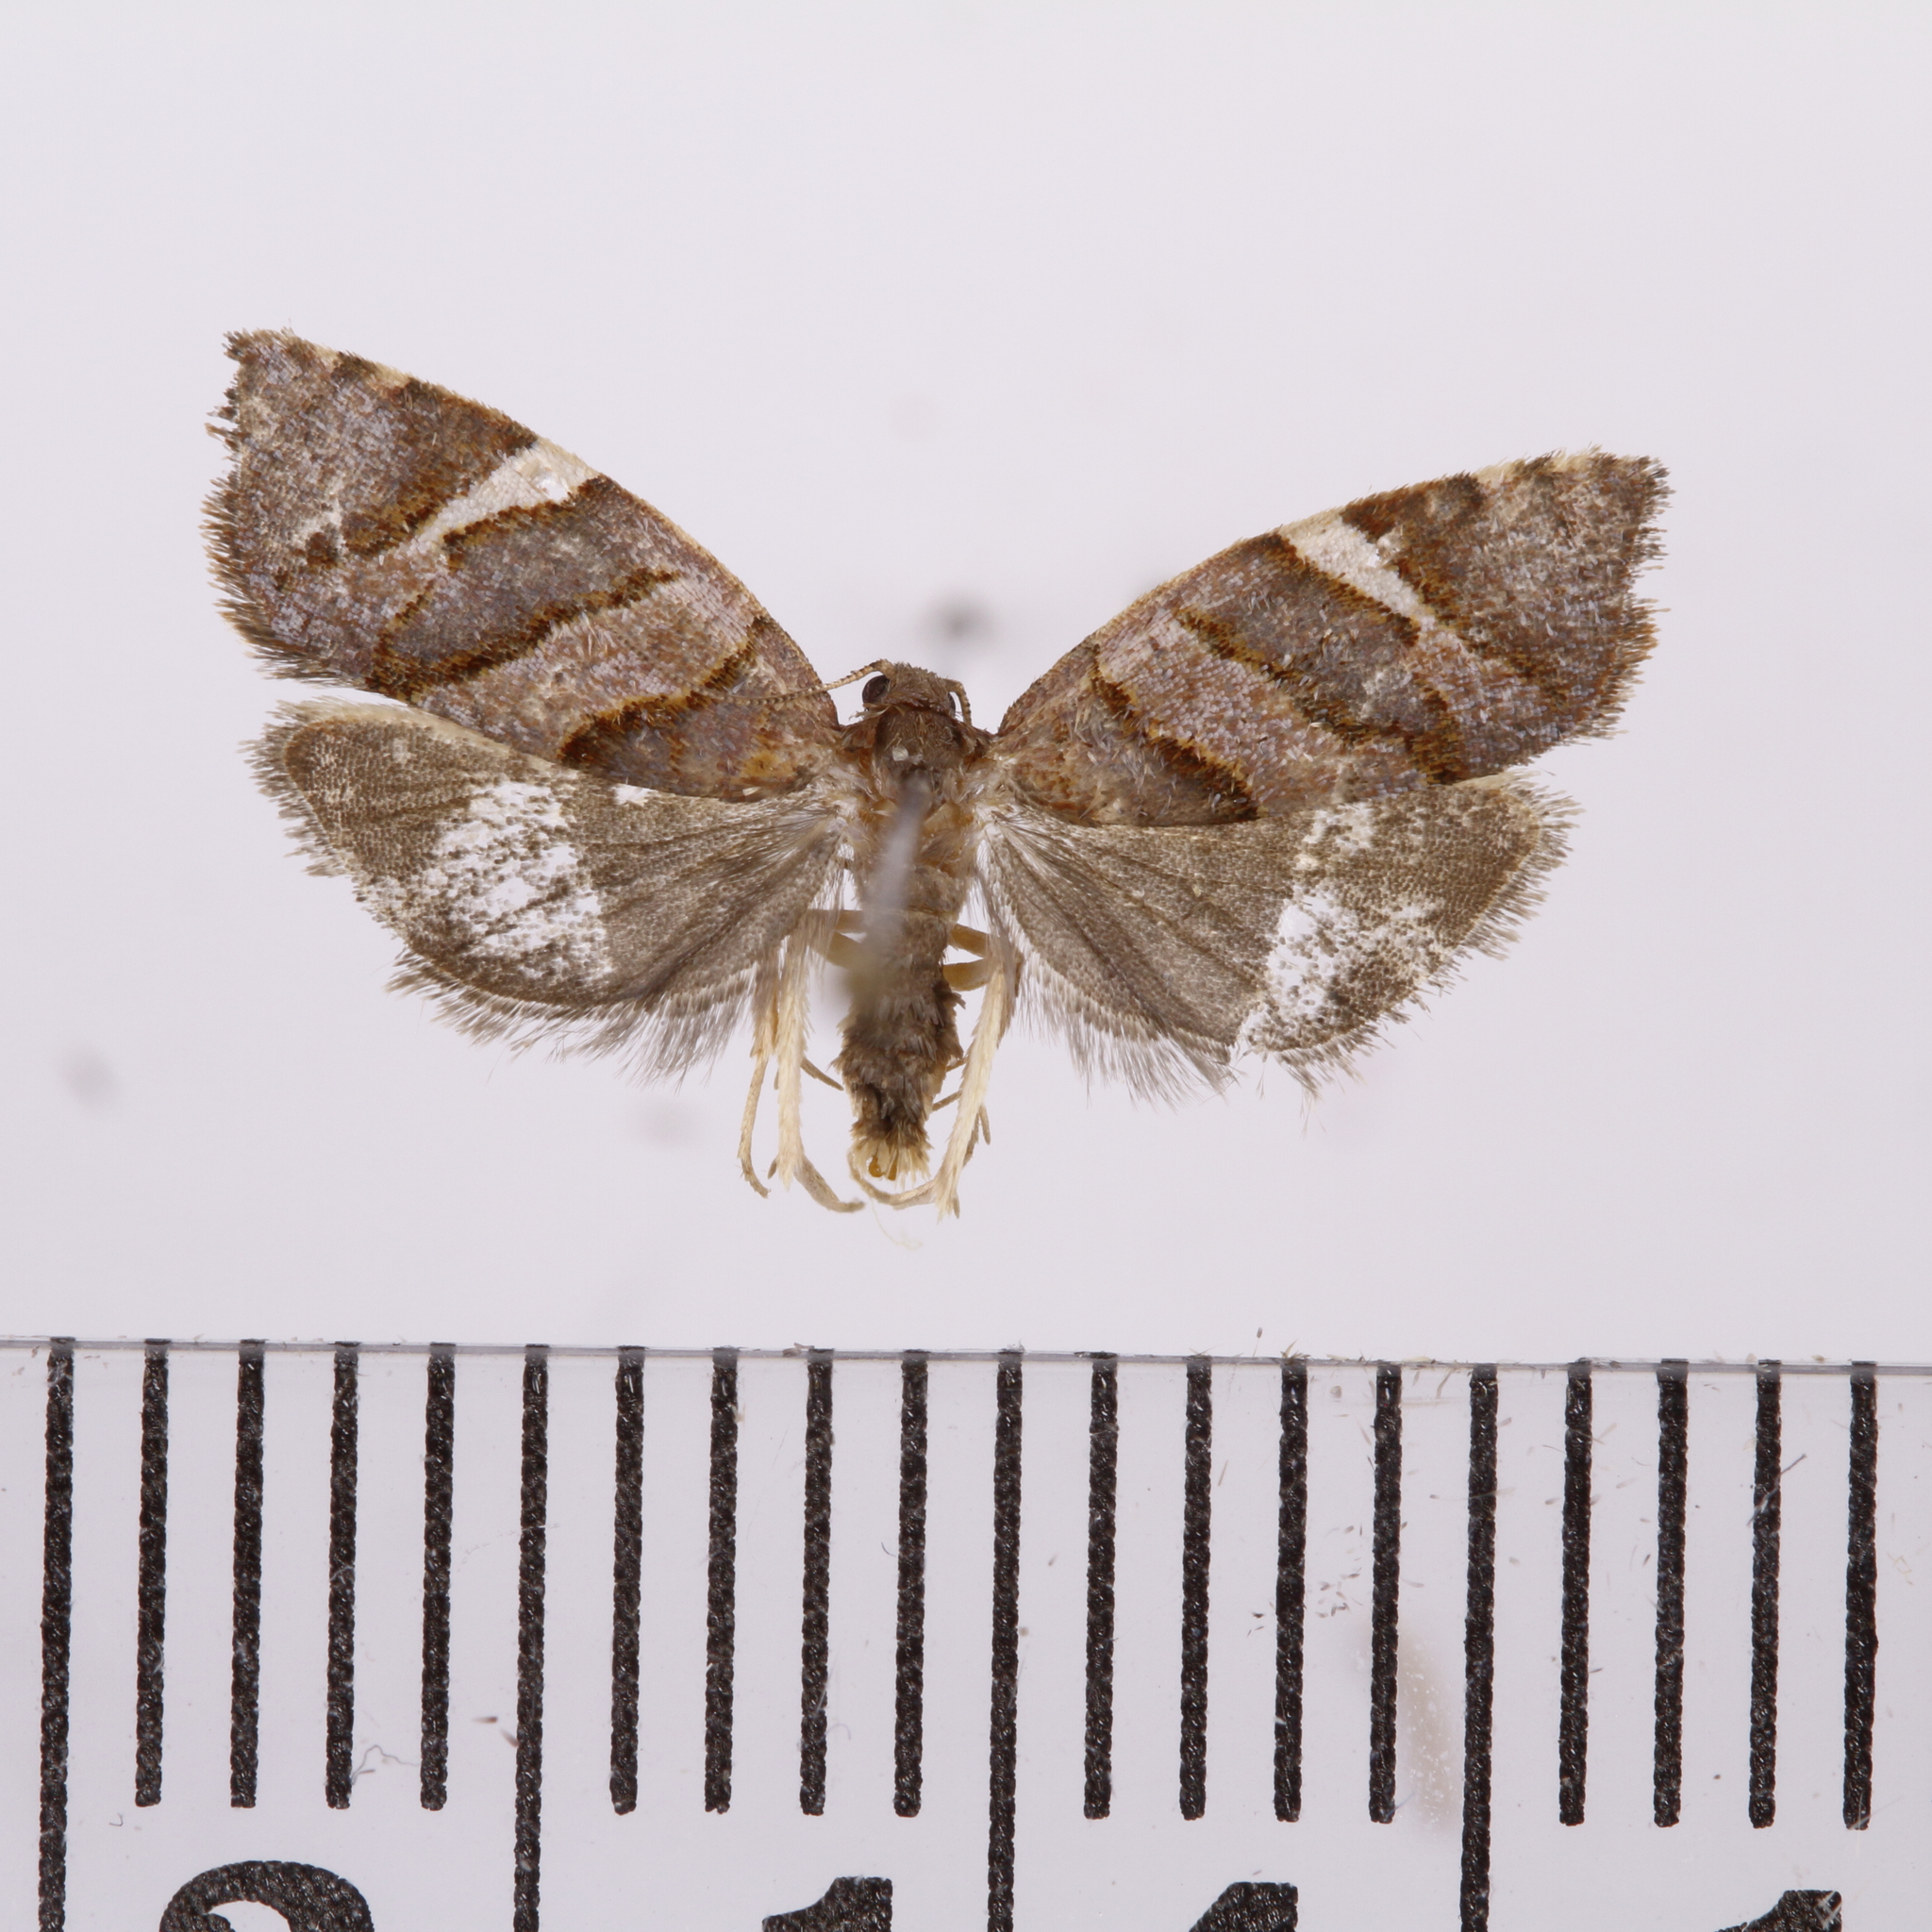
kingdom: Animalia
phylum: Arthropoda
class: Insecta
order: Lepidoptera
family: Tortricidae
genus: Ecclitica
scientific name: Ecclitica torogramma
